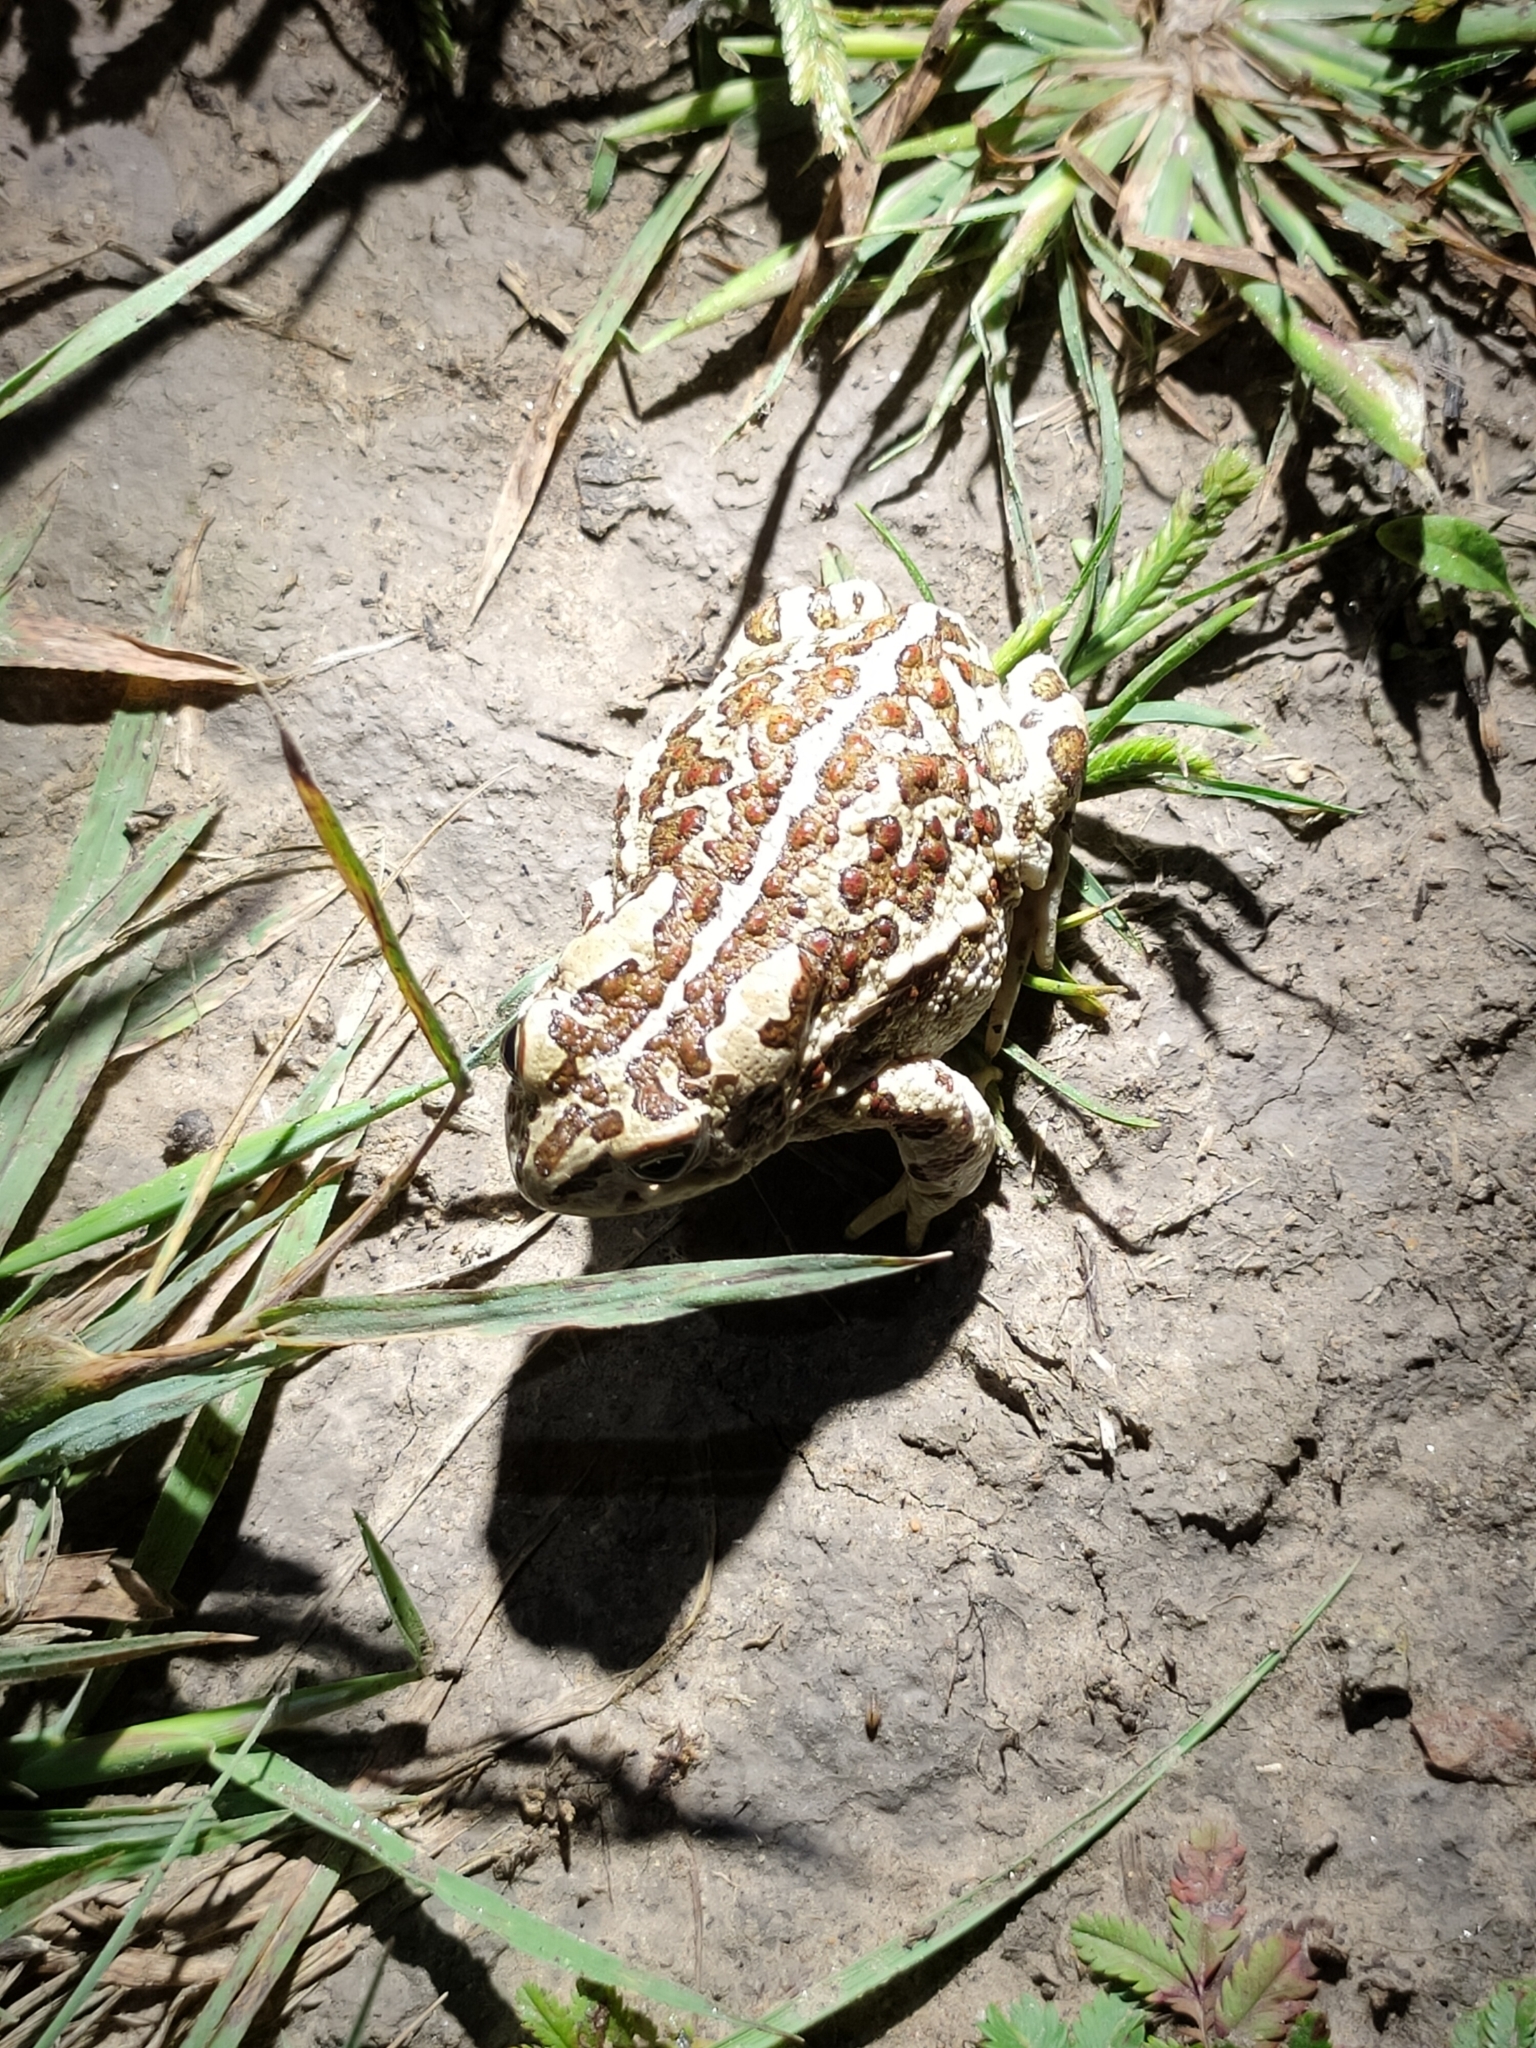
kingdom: Animalia
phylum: Chordata
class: Amphibia
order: Anura
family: Bufonidae
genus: Strauchbufo
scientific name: Strauchbufo raddei
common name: Mongolian toad
